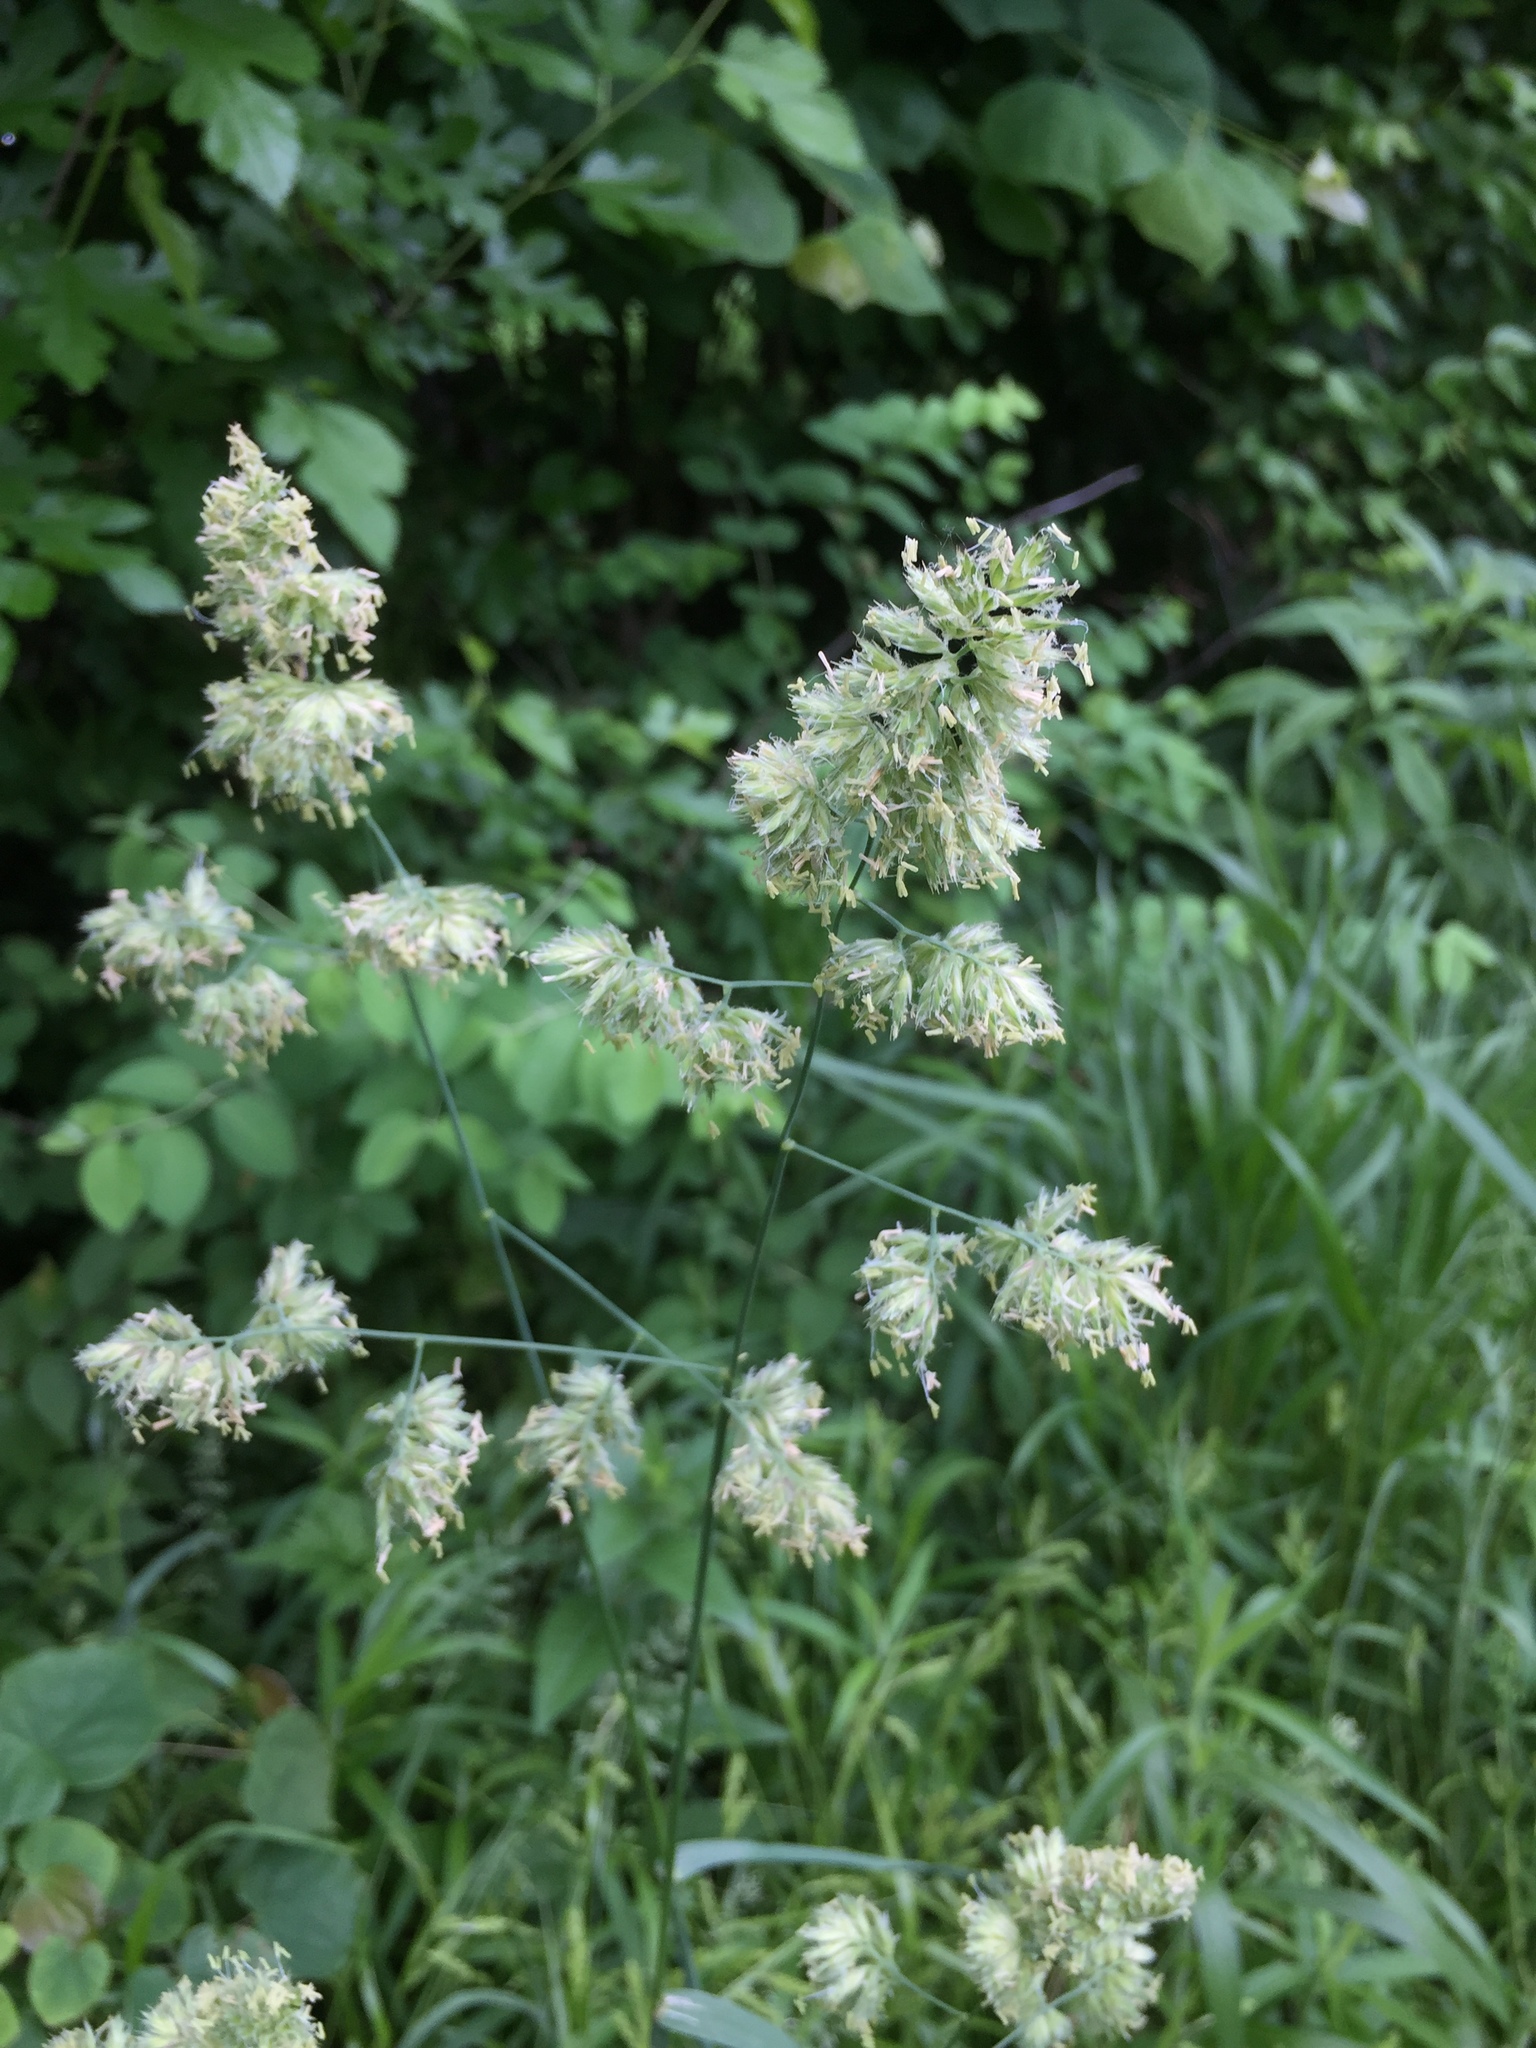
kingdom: Plantae
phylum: Tracheophyta
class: Liliopsida
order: Poales
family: Poaceae
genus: Dactylis
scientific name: Dactylis glomerata
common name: Orchardgrass
